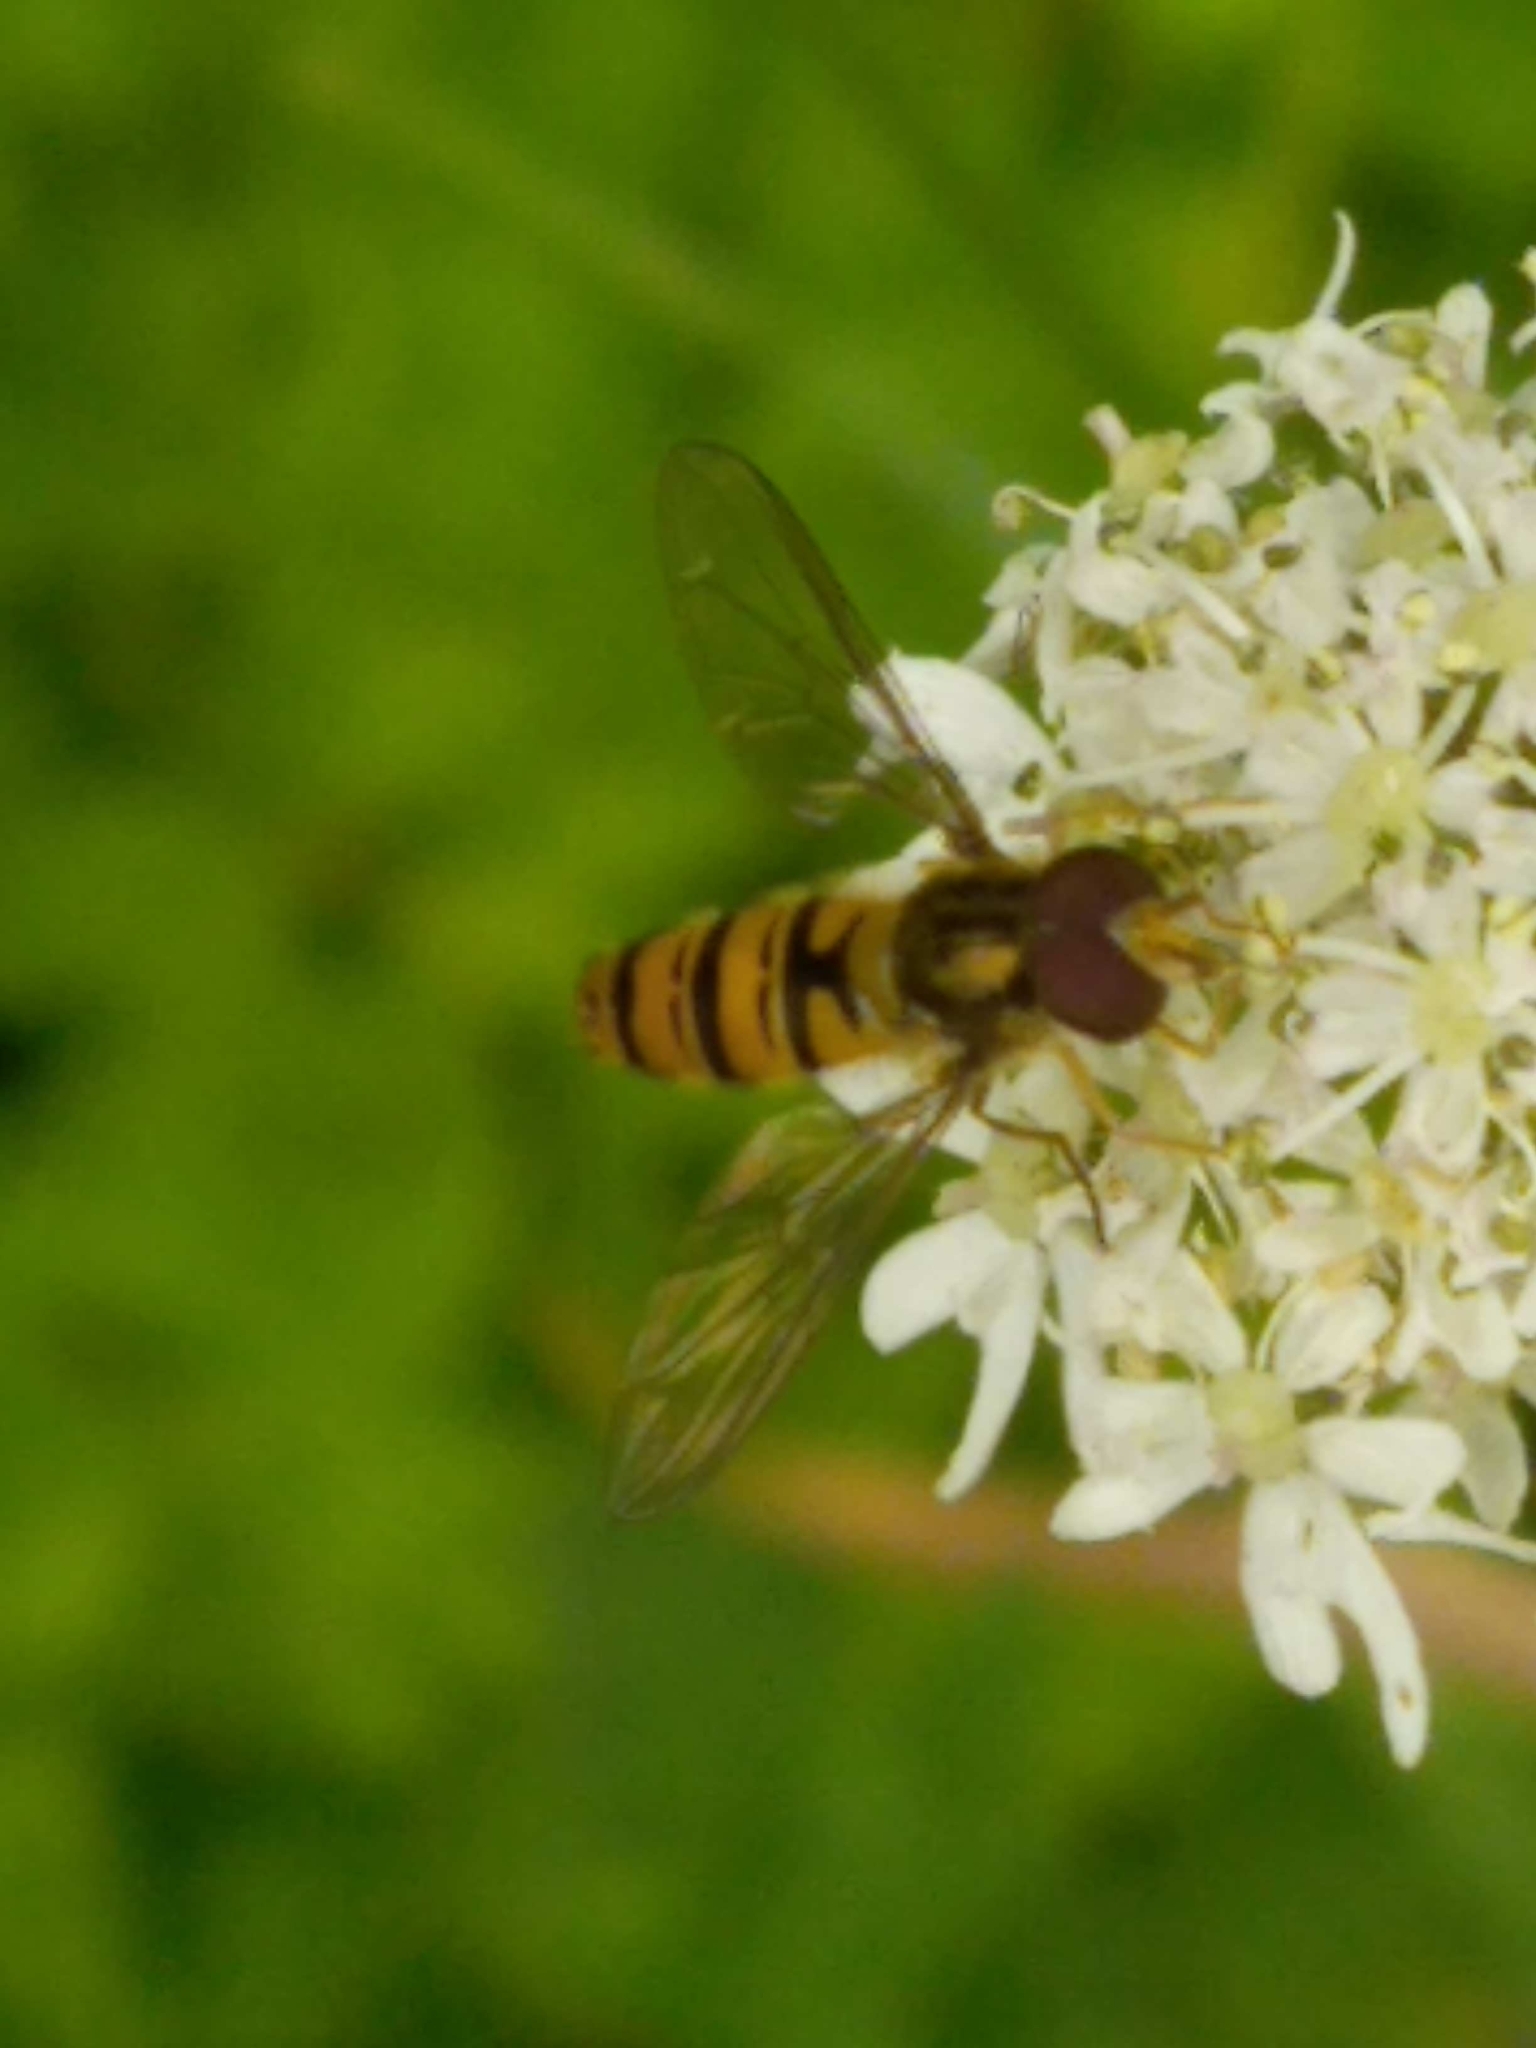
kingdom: Animalia
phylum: Arthropoda
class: Insecta
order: Diptera
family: Syrphidae
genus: Episyrphus
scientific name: Episyrphus balteatus
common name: Marmalade hoverfly
